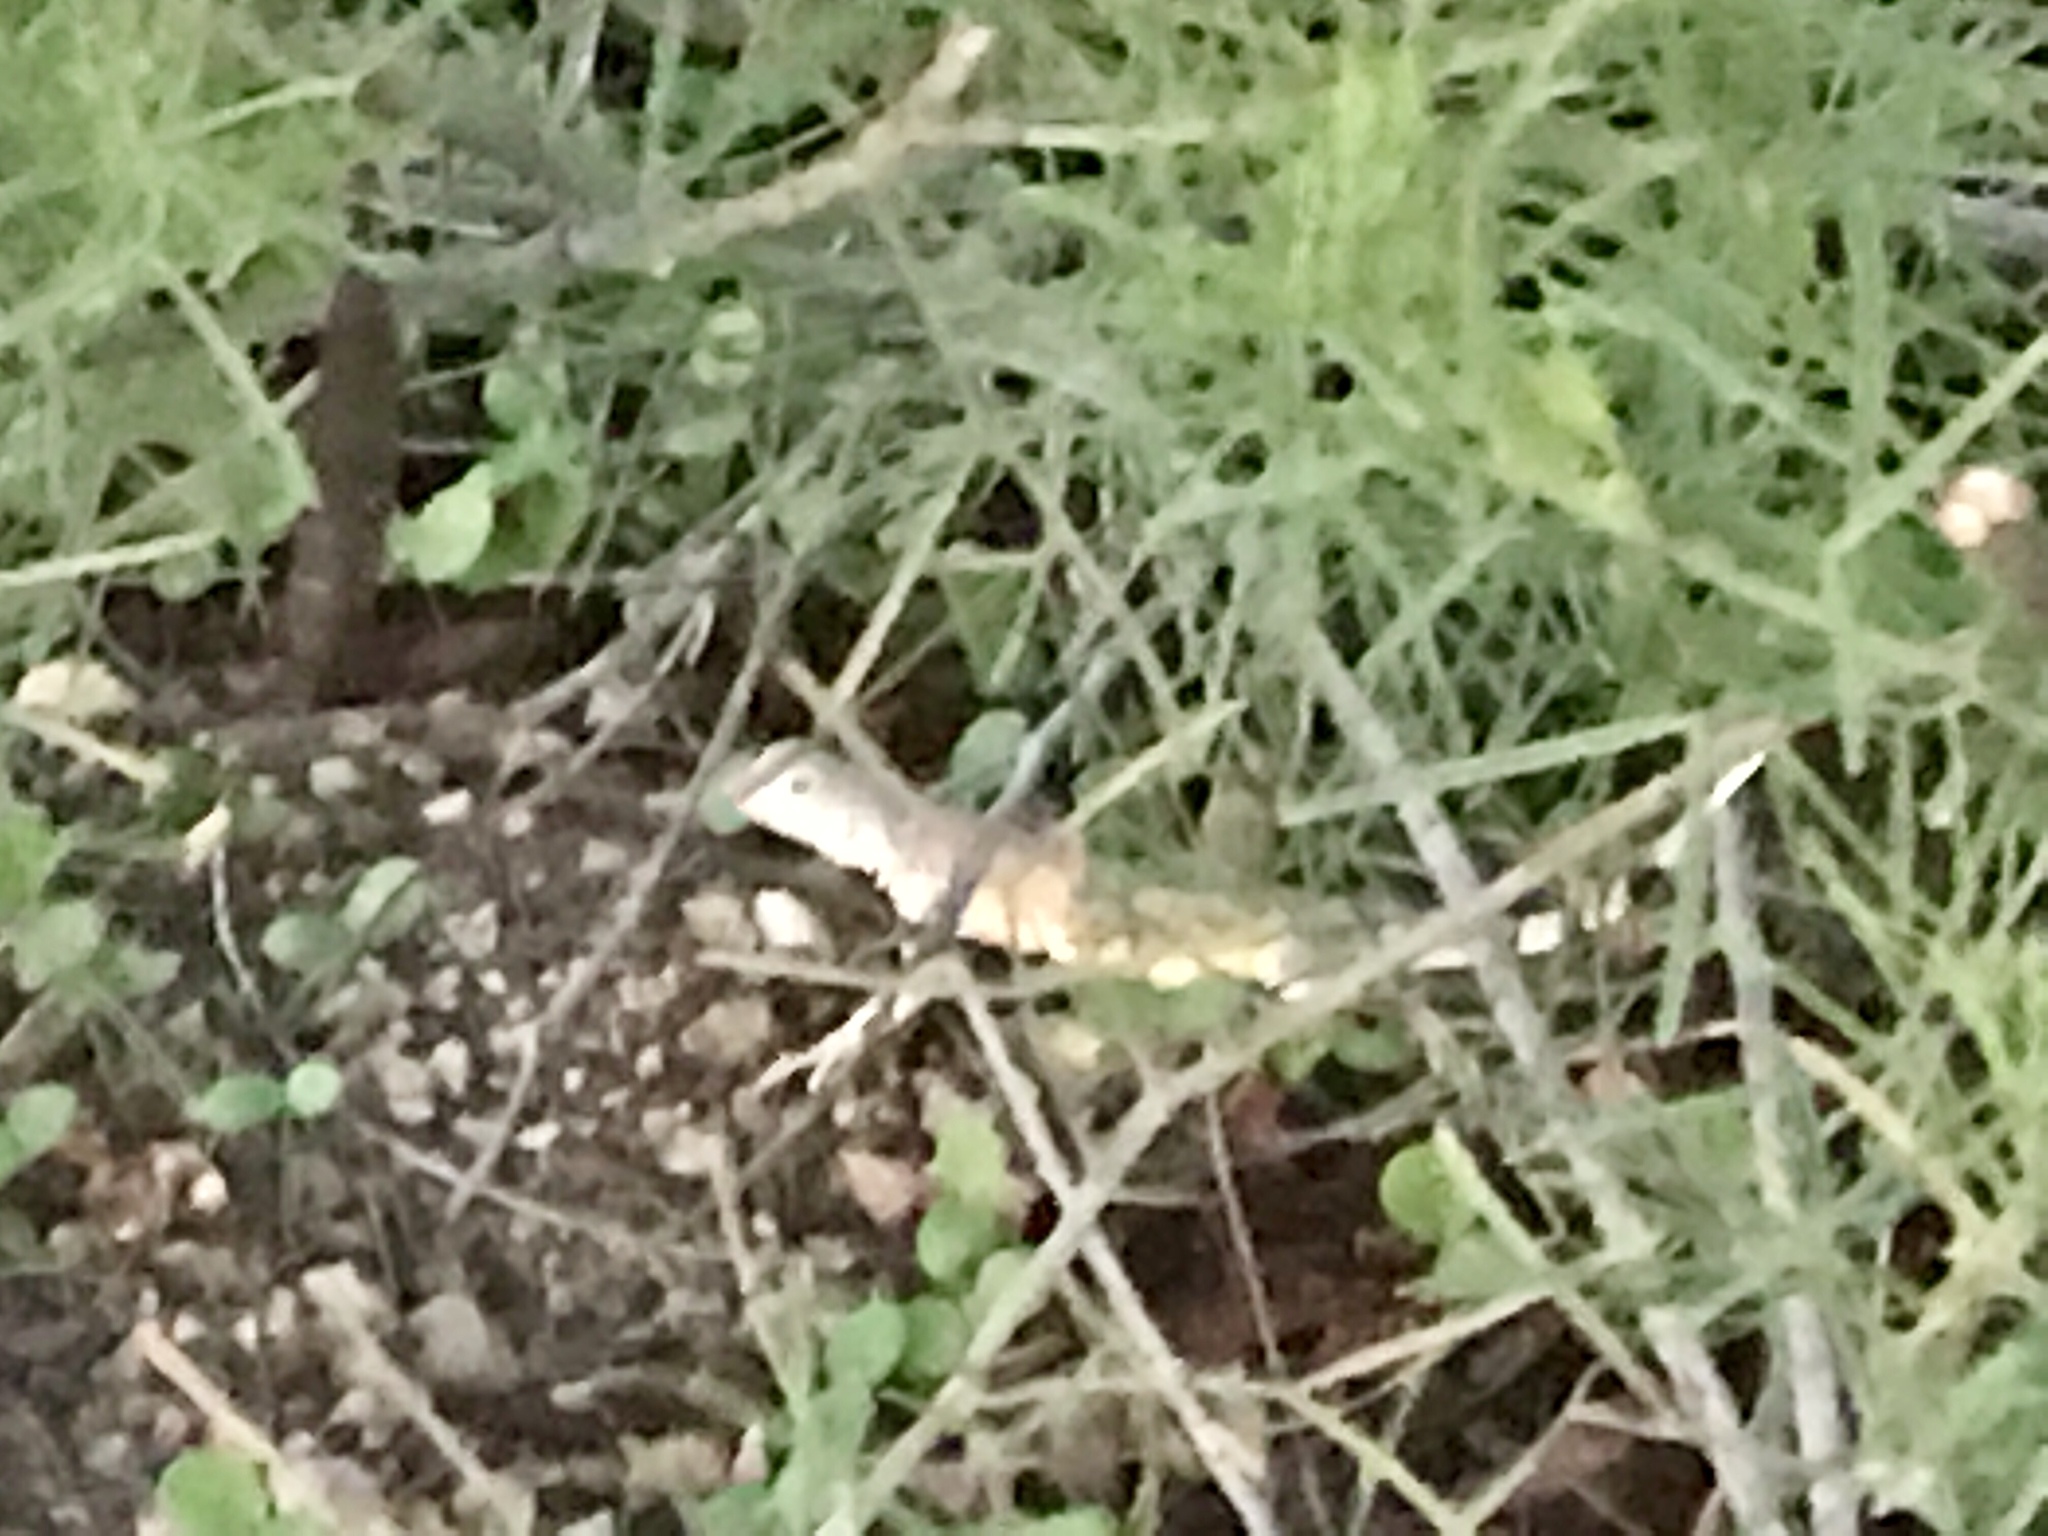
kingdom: Animalia
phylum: Chordata
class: Squamata
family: Phrynosomatidae
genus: Callisaurus
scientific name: Callisaurus draconoides
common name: Zebra-tailed lizard
